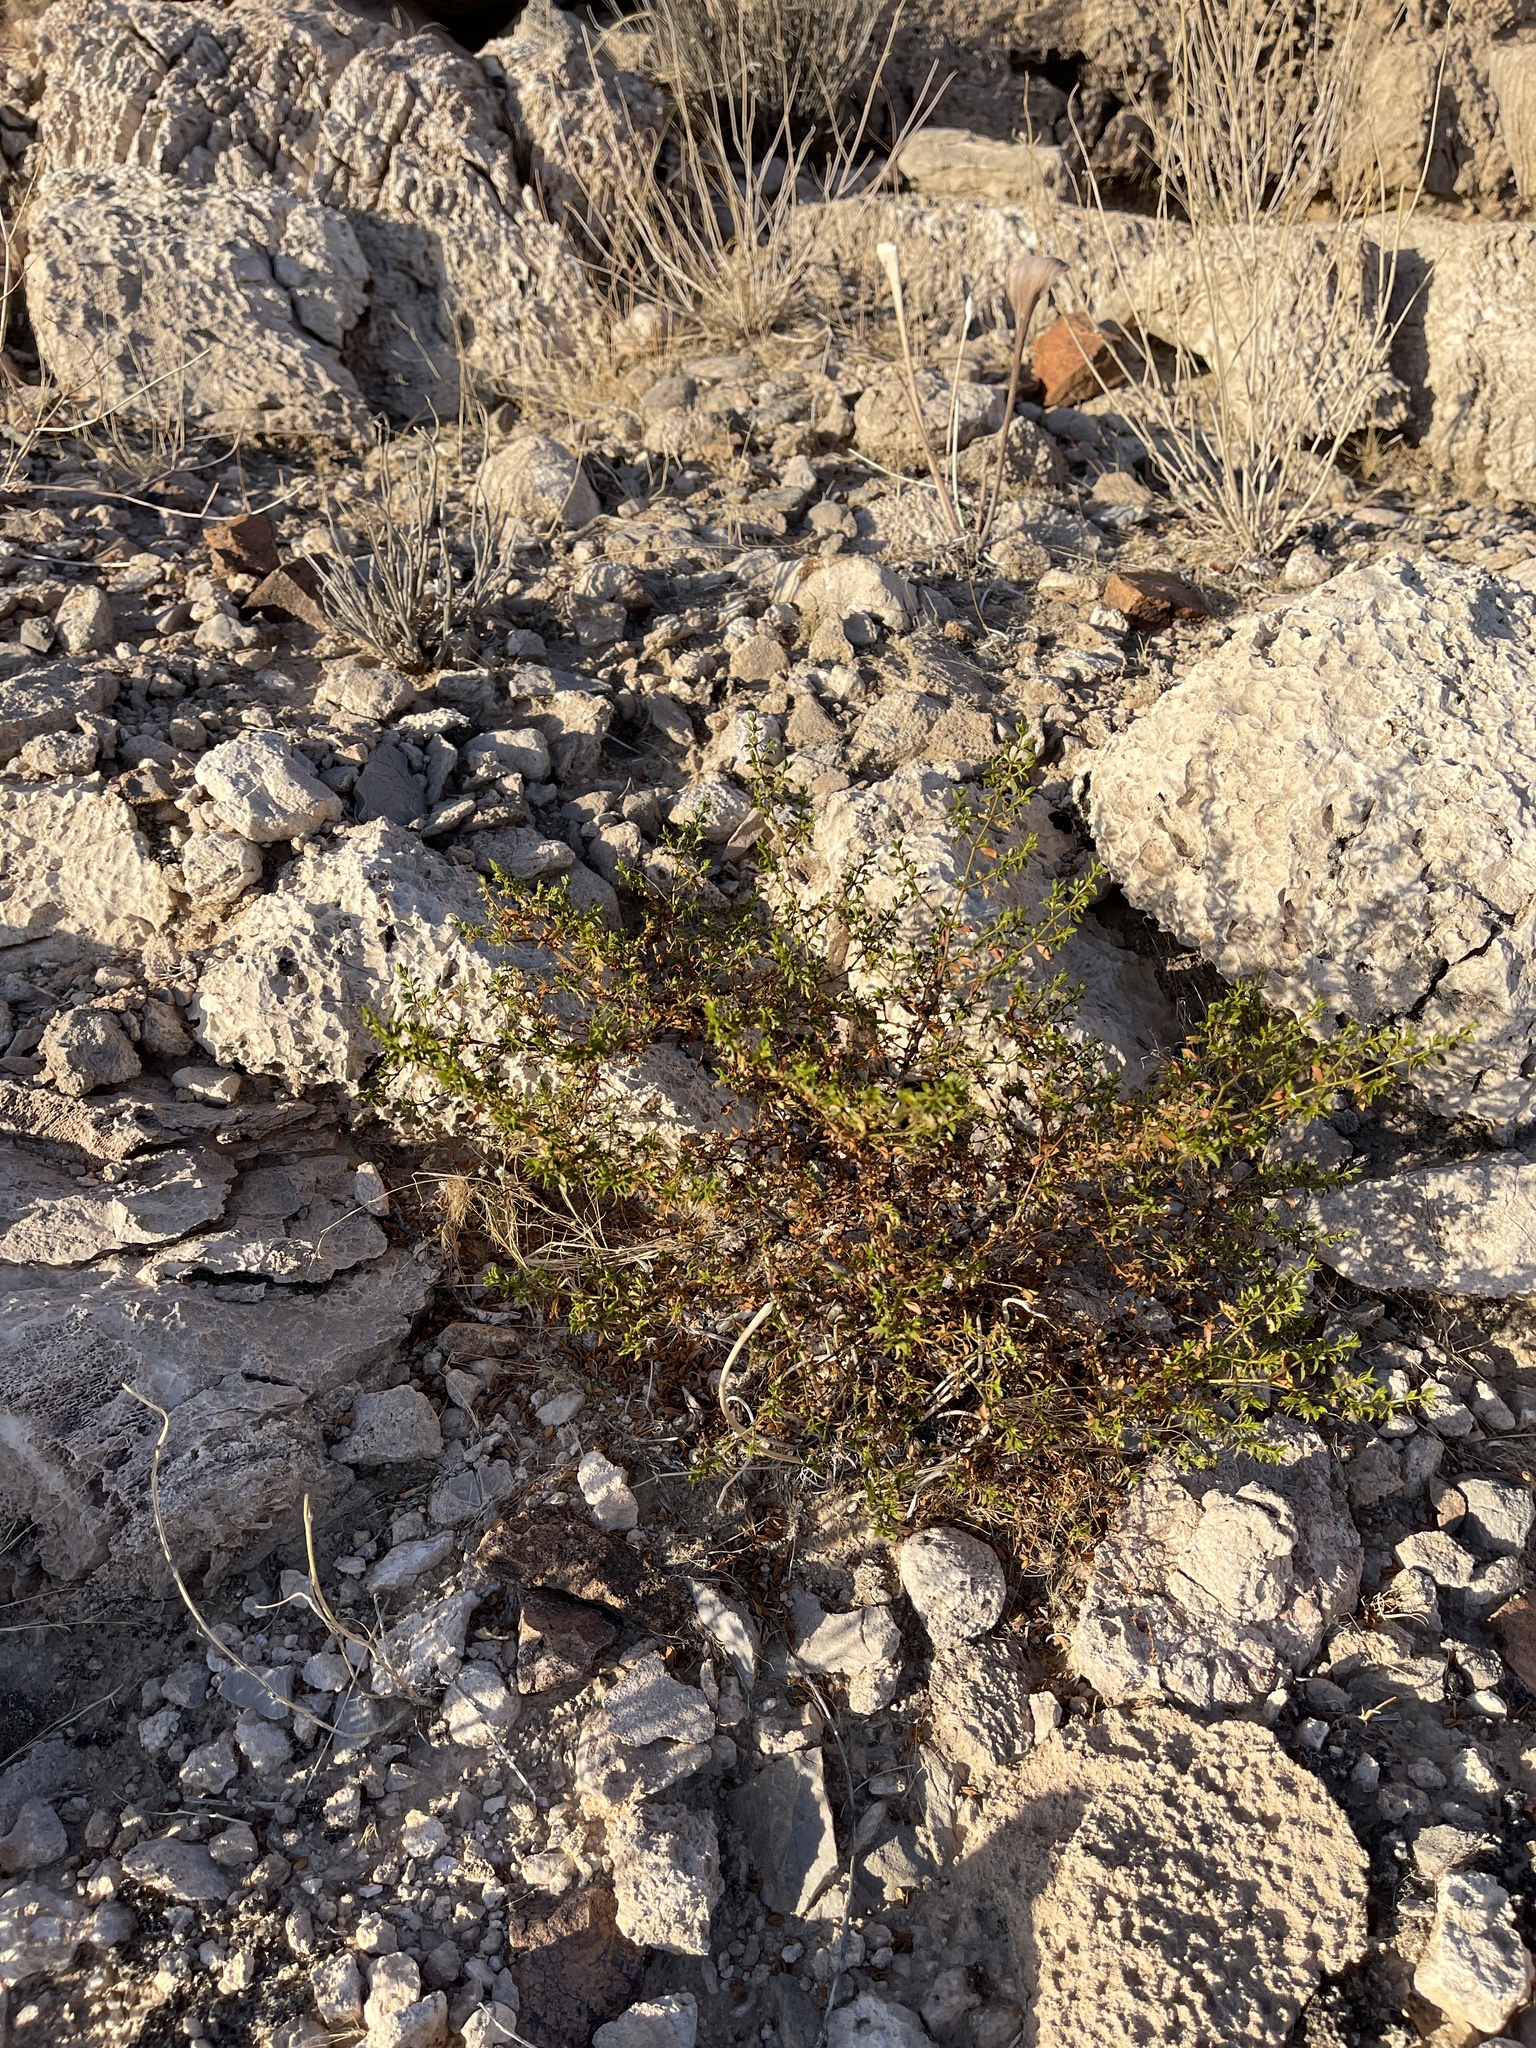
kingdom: Plantae
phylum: Tracheophyta
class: Magnoliopsida
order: Zygophyllales
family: Zygophyllaceae
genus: Larrea
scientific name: Larrea tridentata
